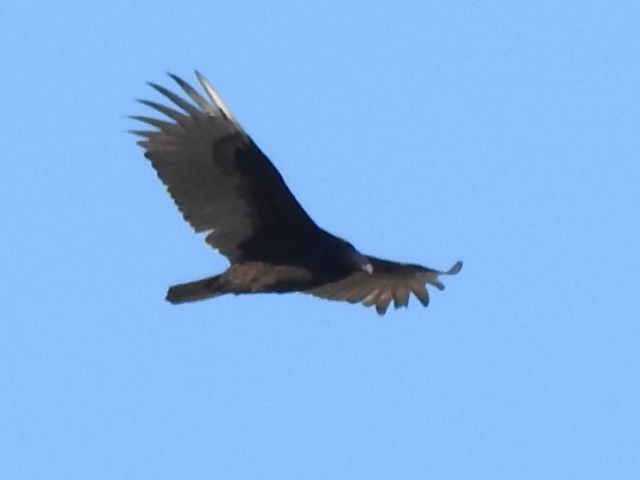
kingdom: Animalia
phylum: Chordata
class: Aves
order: Accipitriformes
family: Cathartidae
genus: Cathartes
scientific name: Cathartes aura
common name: Turkey vulture
